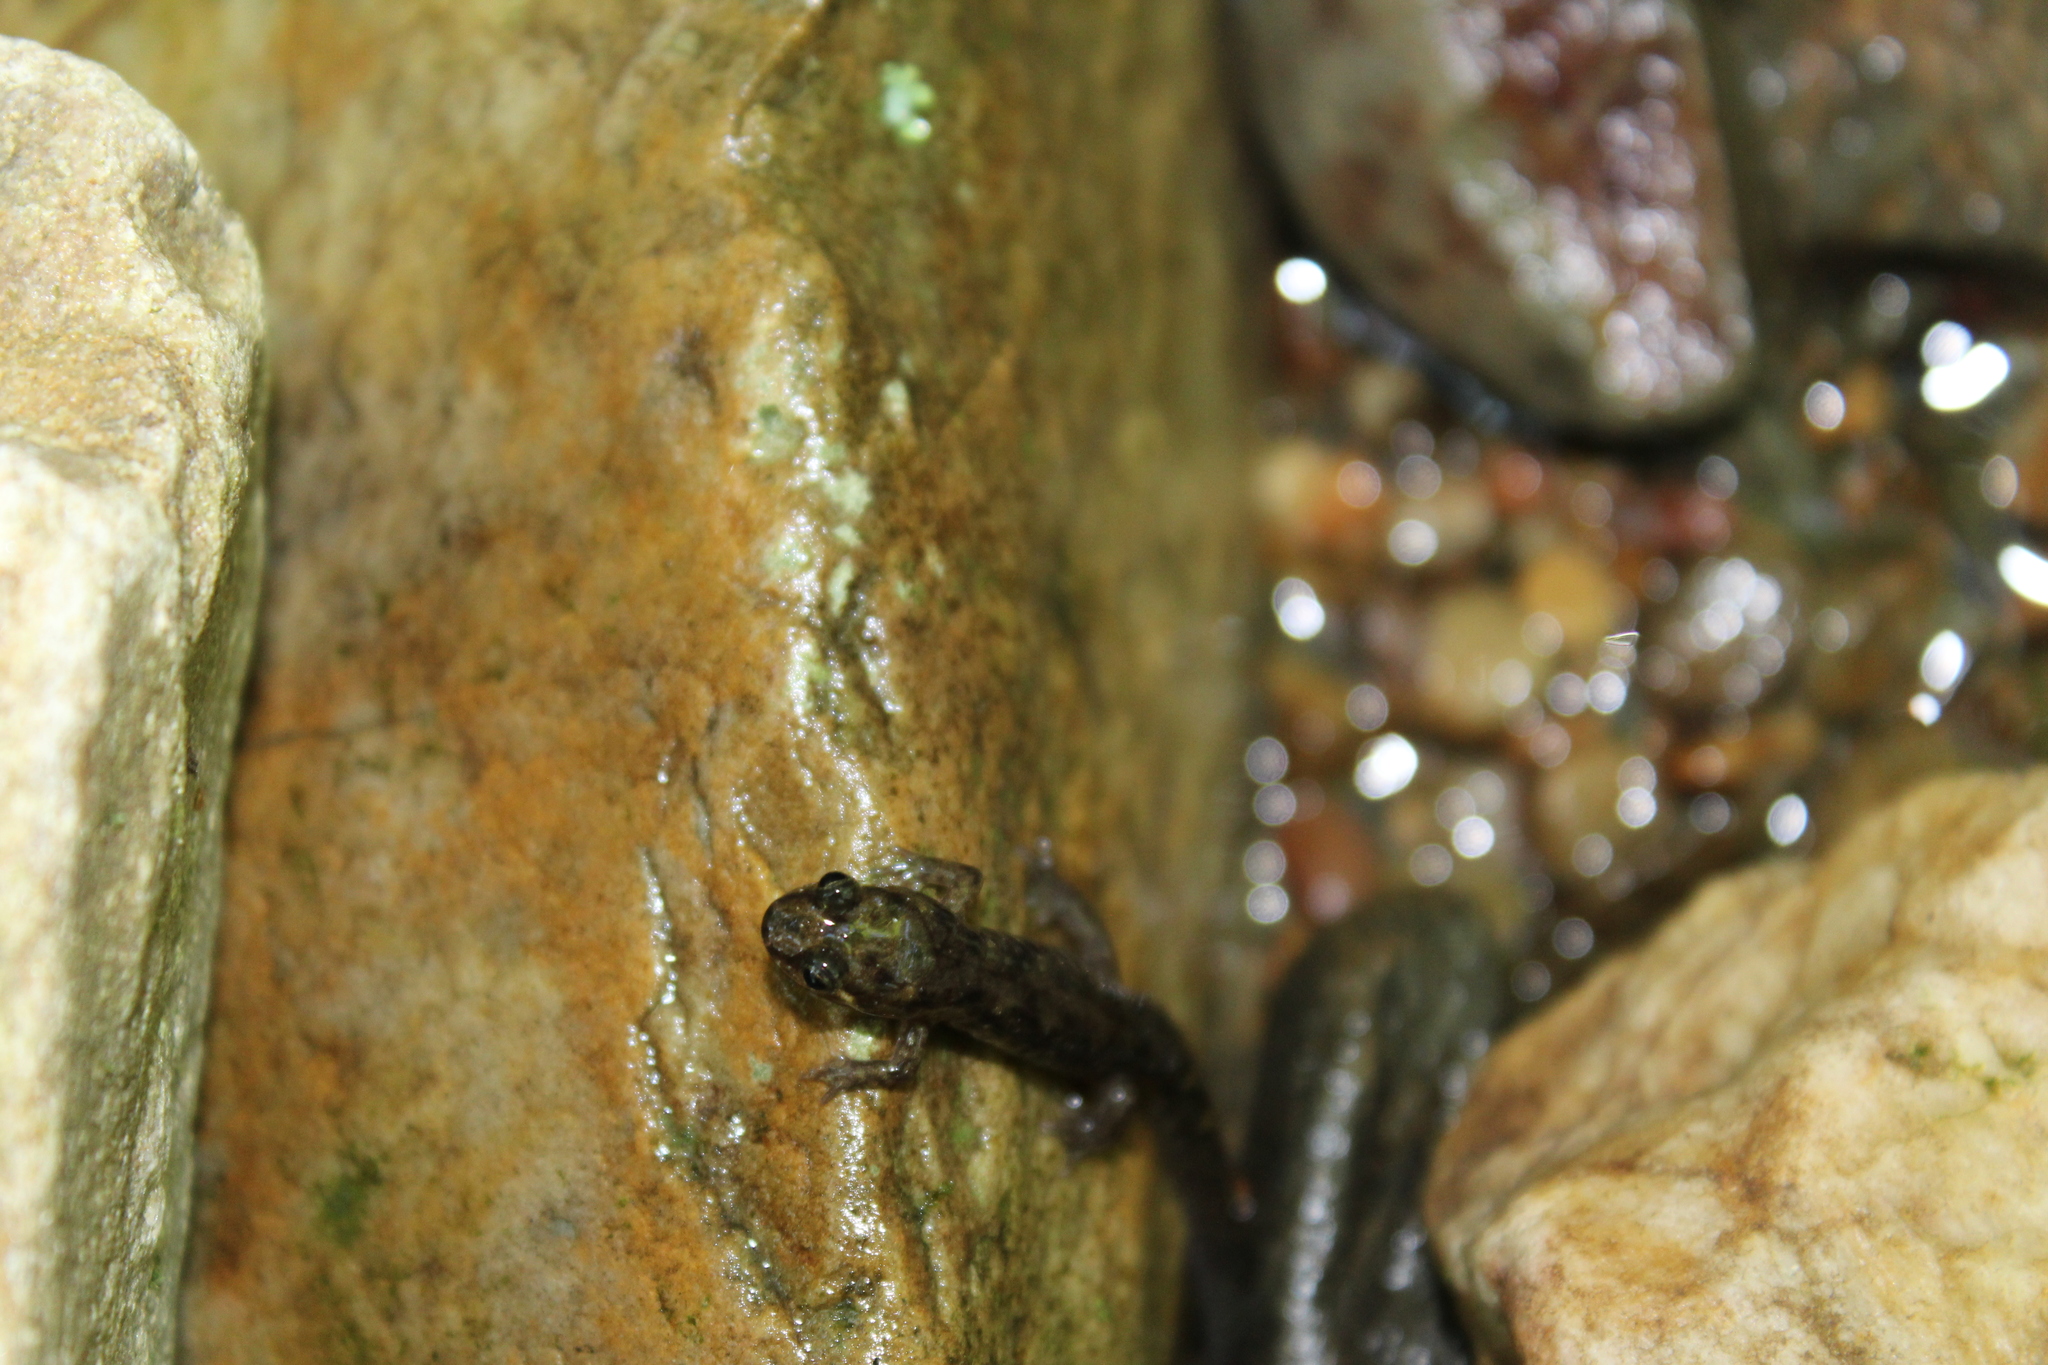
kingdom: Animalia
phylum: Chordata
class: Amphibia
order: Caudata
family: Plethodontidae
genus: Desmognathus
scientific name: Desmognathus monticola
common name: Seal salamander
